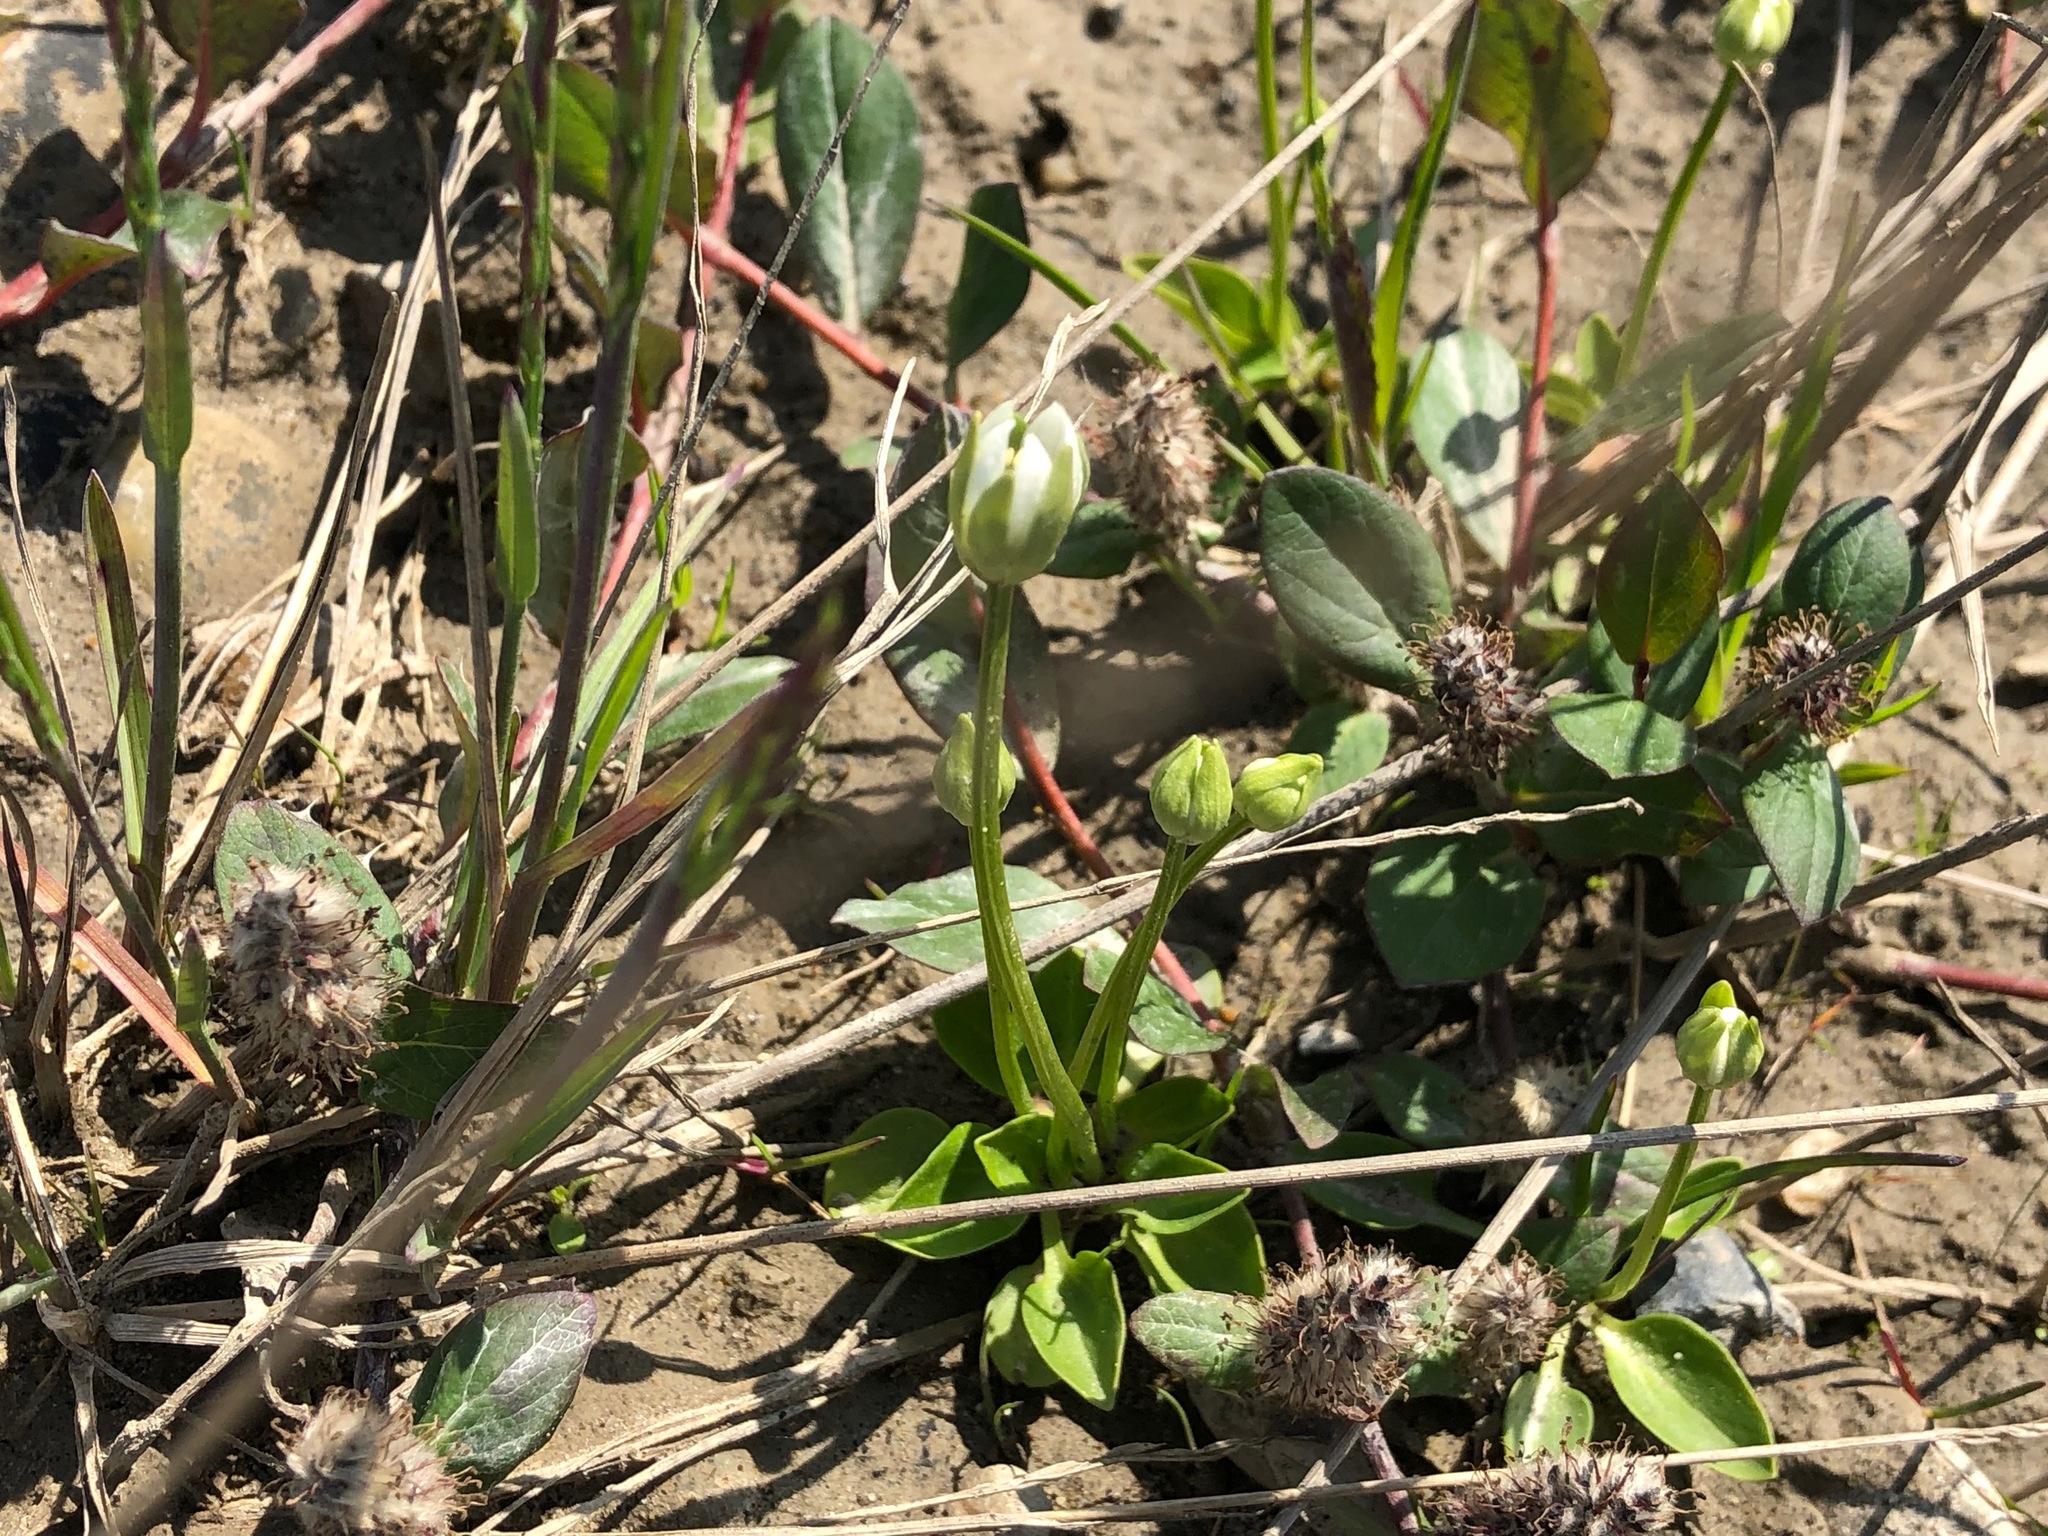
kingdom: Plantae
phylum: Tracheophyta
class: Magnoliopsida
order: Celastrales
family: Parnassiaceae
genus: Parnassia
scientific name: Parnassia kotzebuei
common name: Kotzebue's grass-of-parnassus
